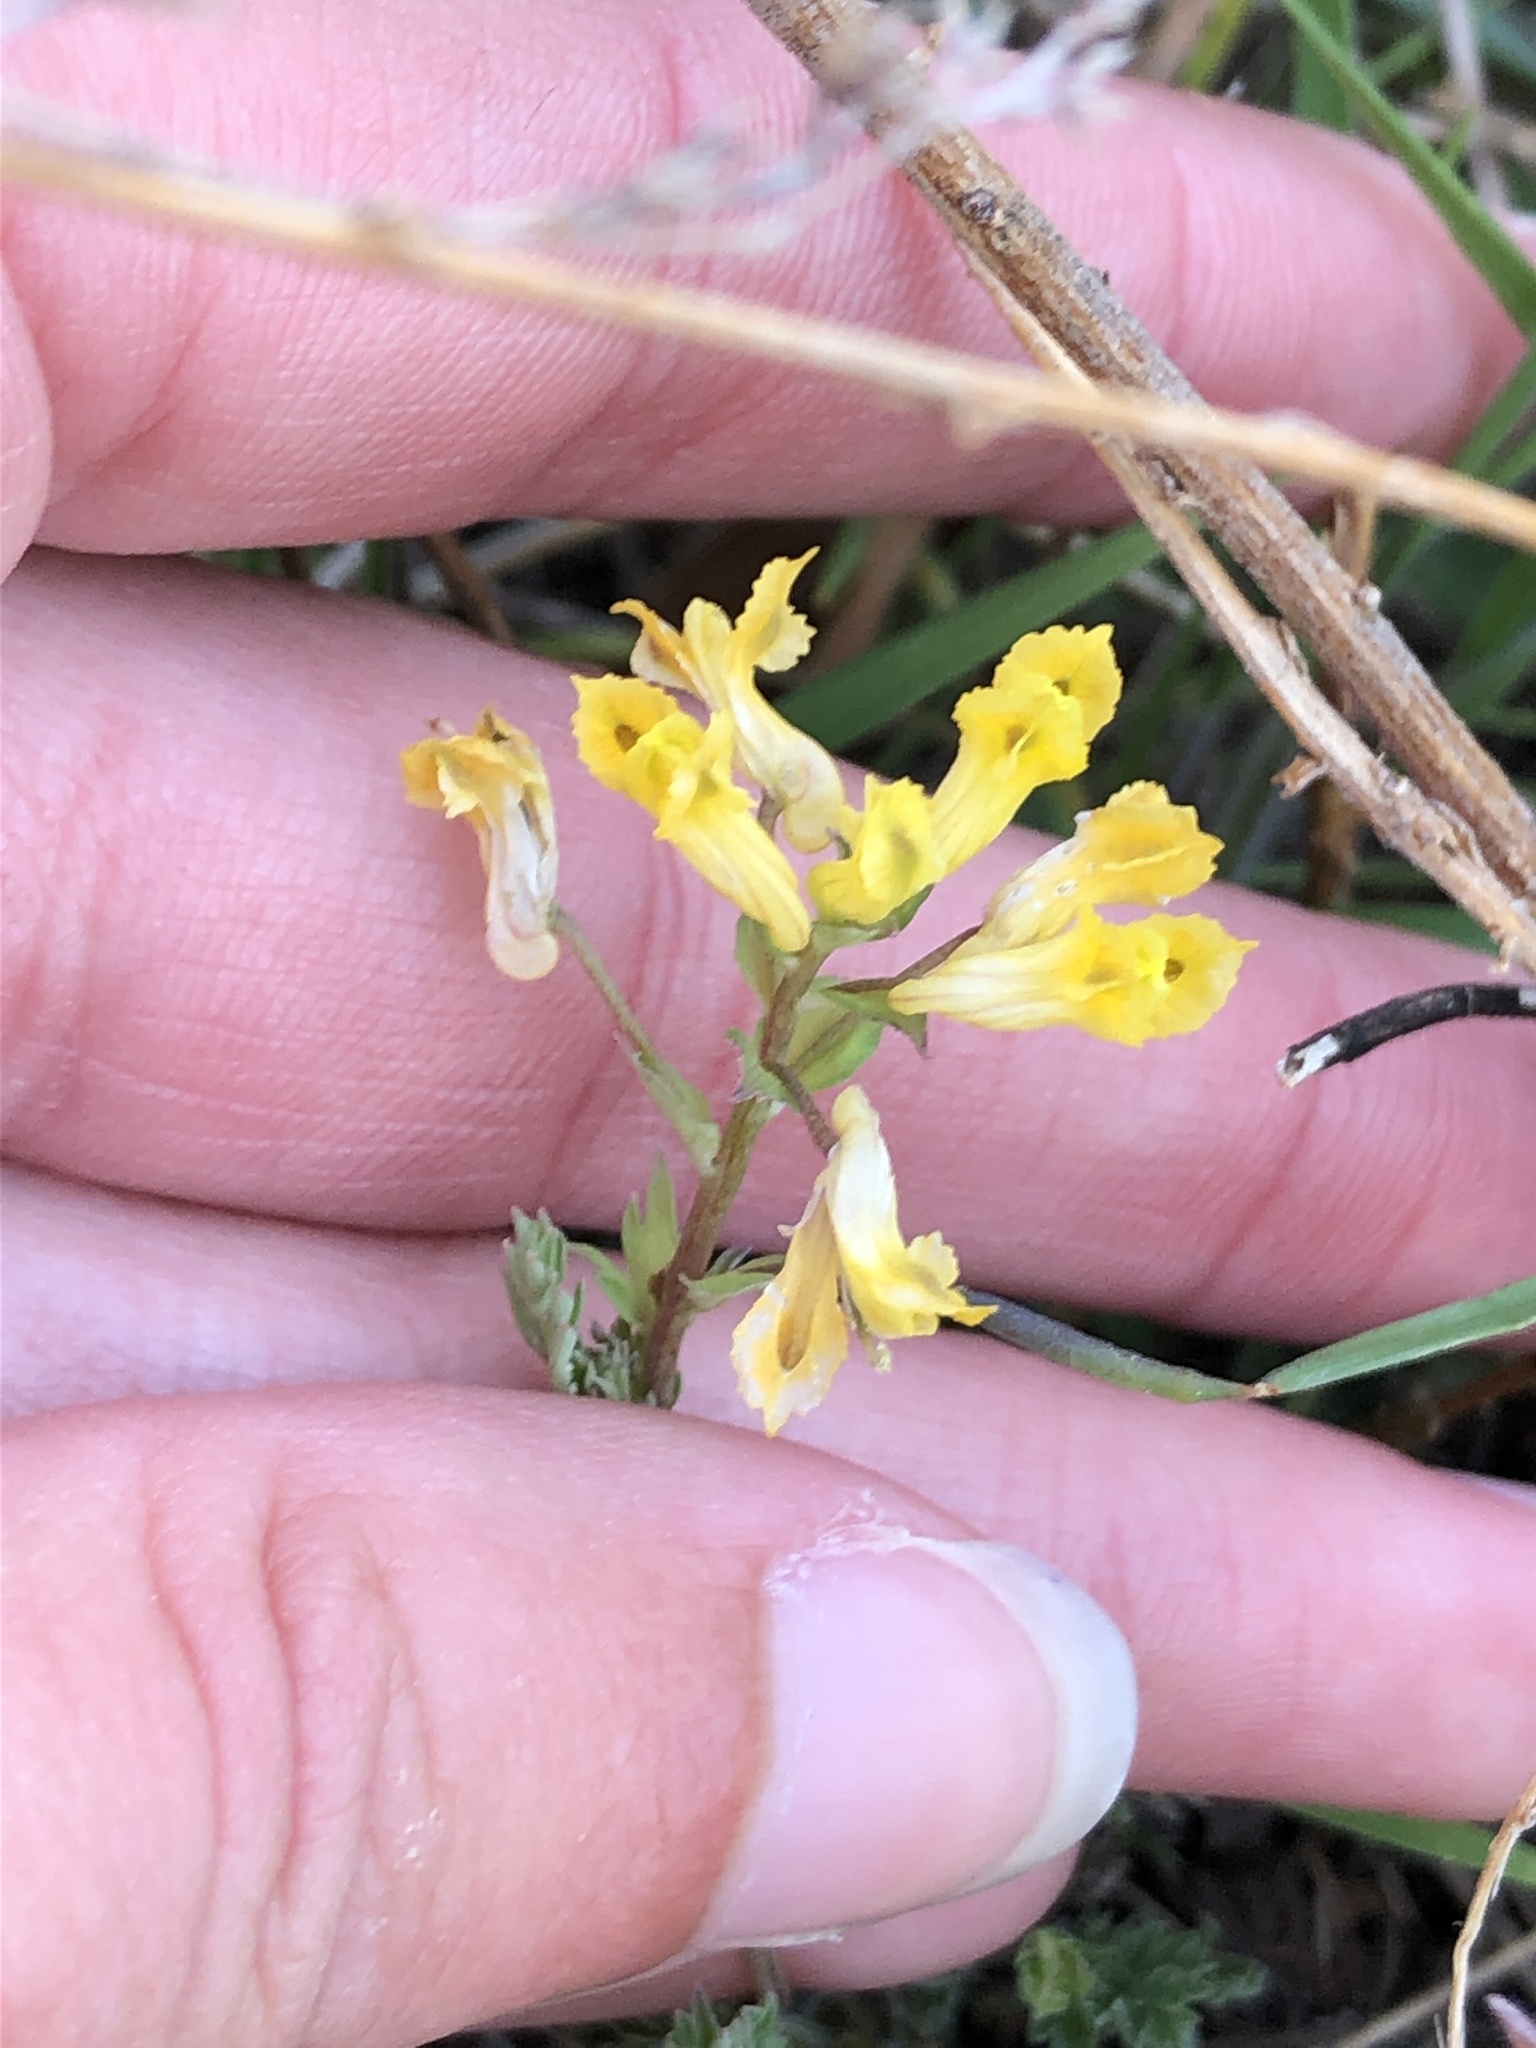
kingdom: Plantae
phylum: Tracheophyta
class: Magnoliopsida
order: Ranunculales
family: Papaveraceae
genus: Corydalis
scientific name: Corydalis flavula
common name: Yellow corydalis
